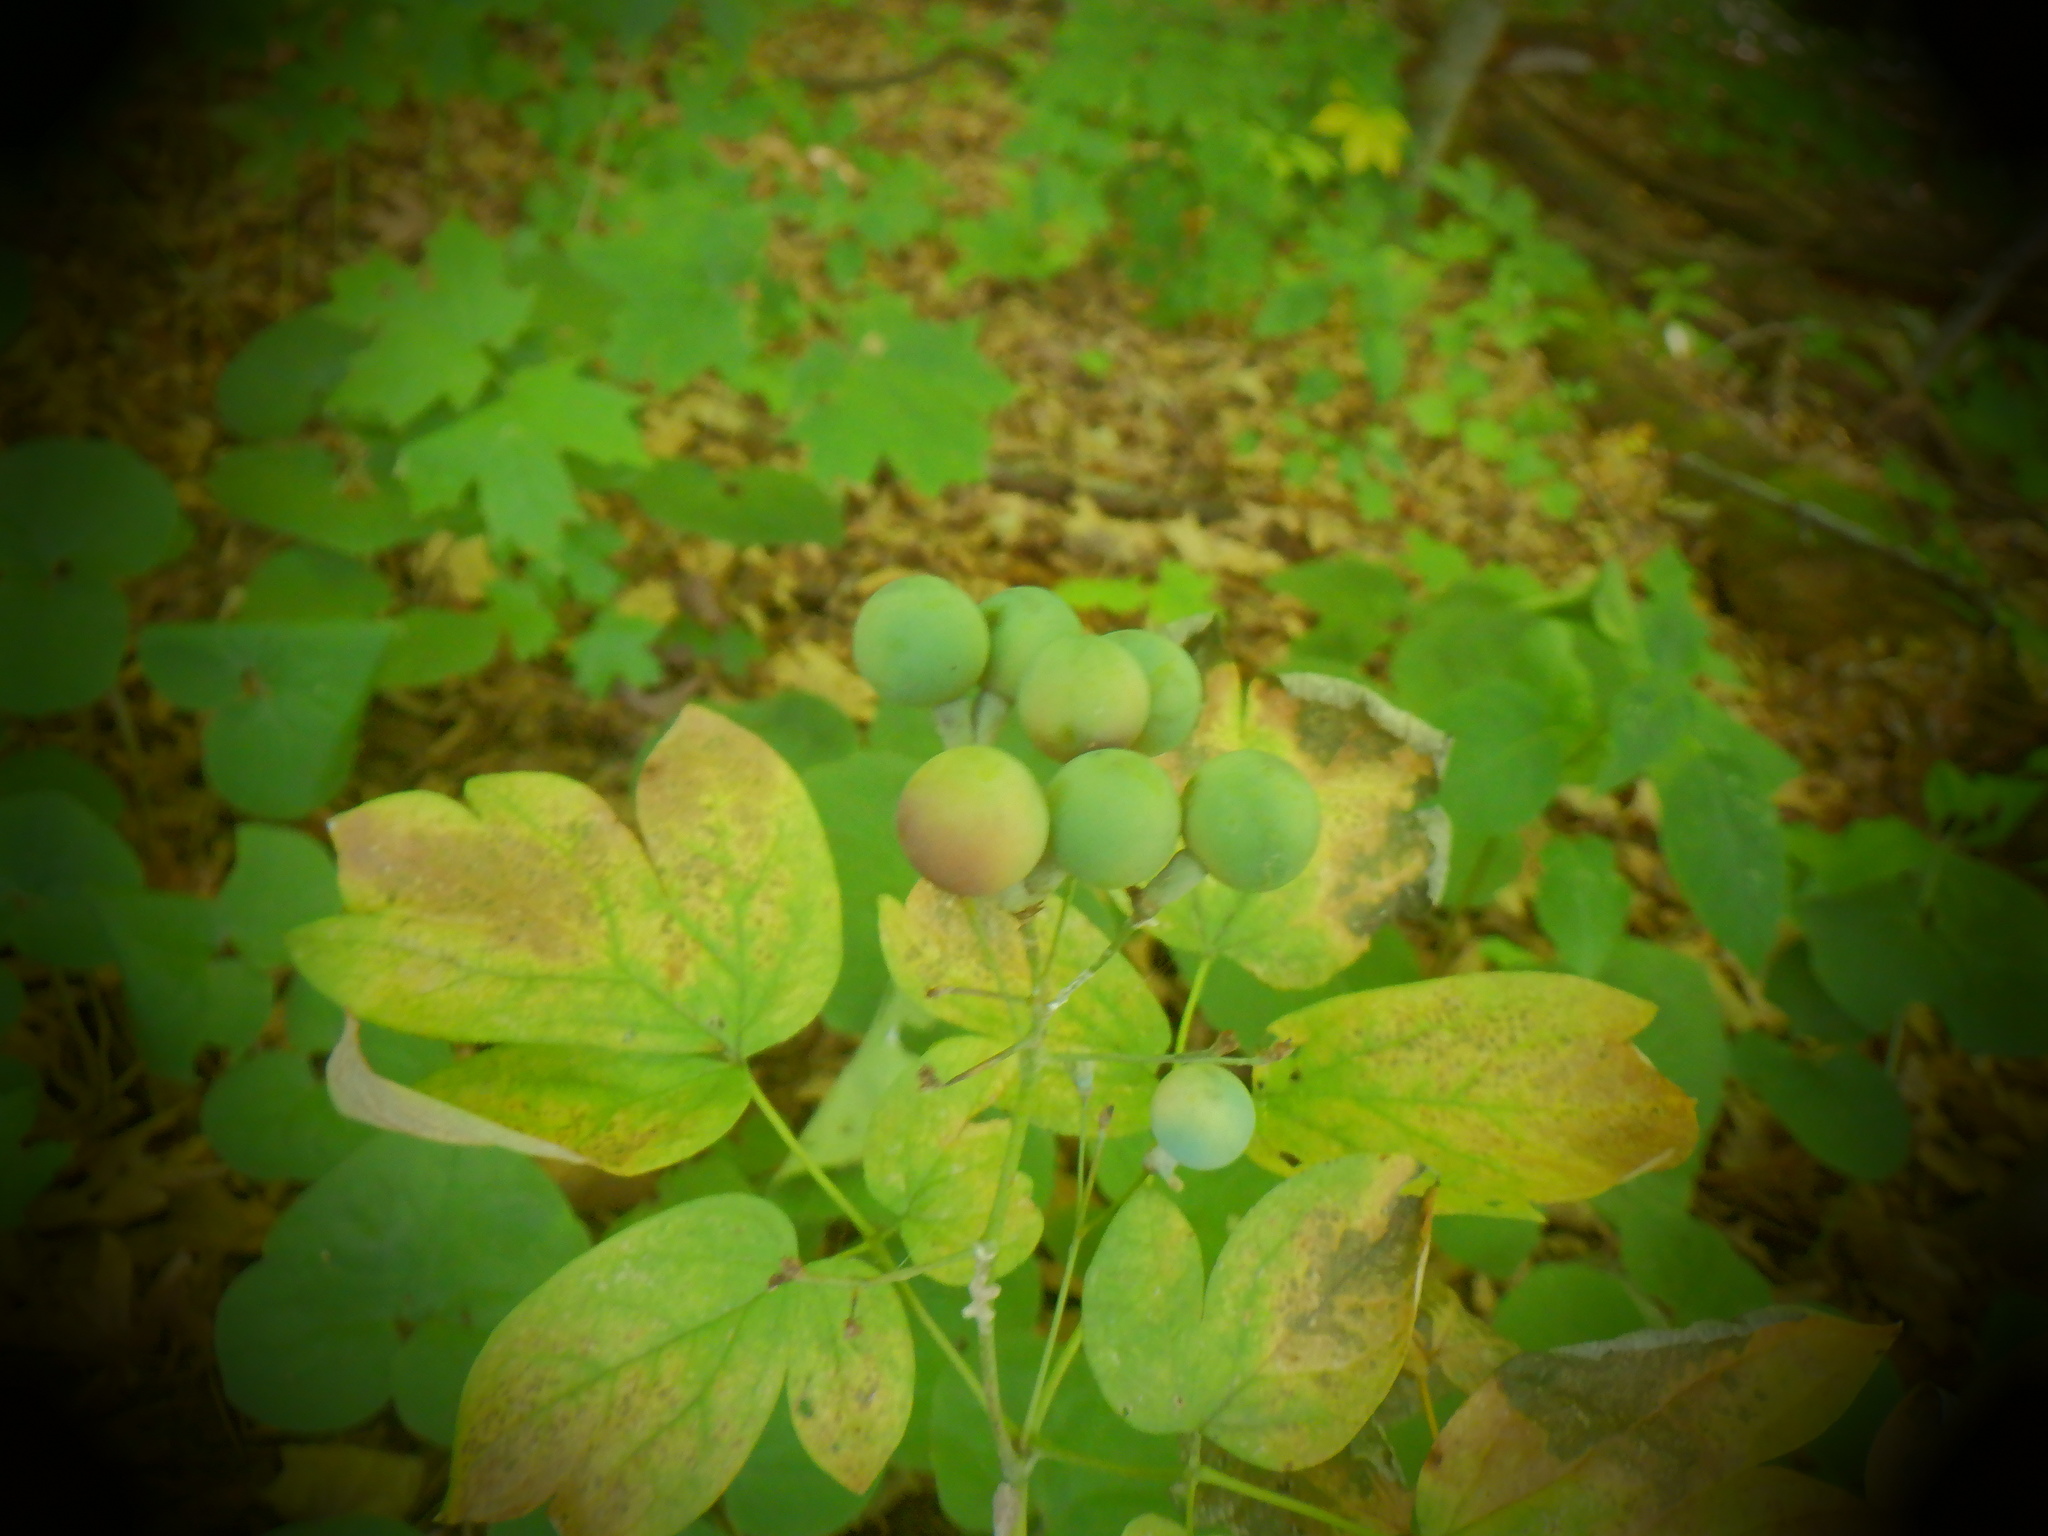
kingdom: Plantae
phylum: Tracheophyta
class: Magnoliopsida
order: Ranunculales
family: Berberidaceae
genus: Caulophyllum
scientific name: Caulophyllum thalictroides
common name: Blue cohosh
